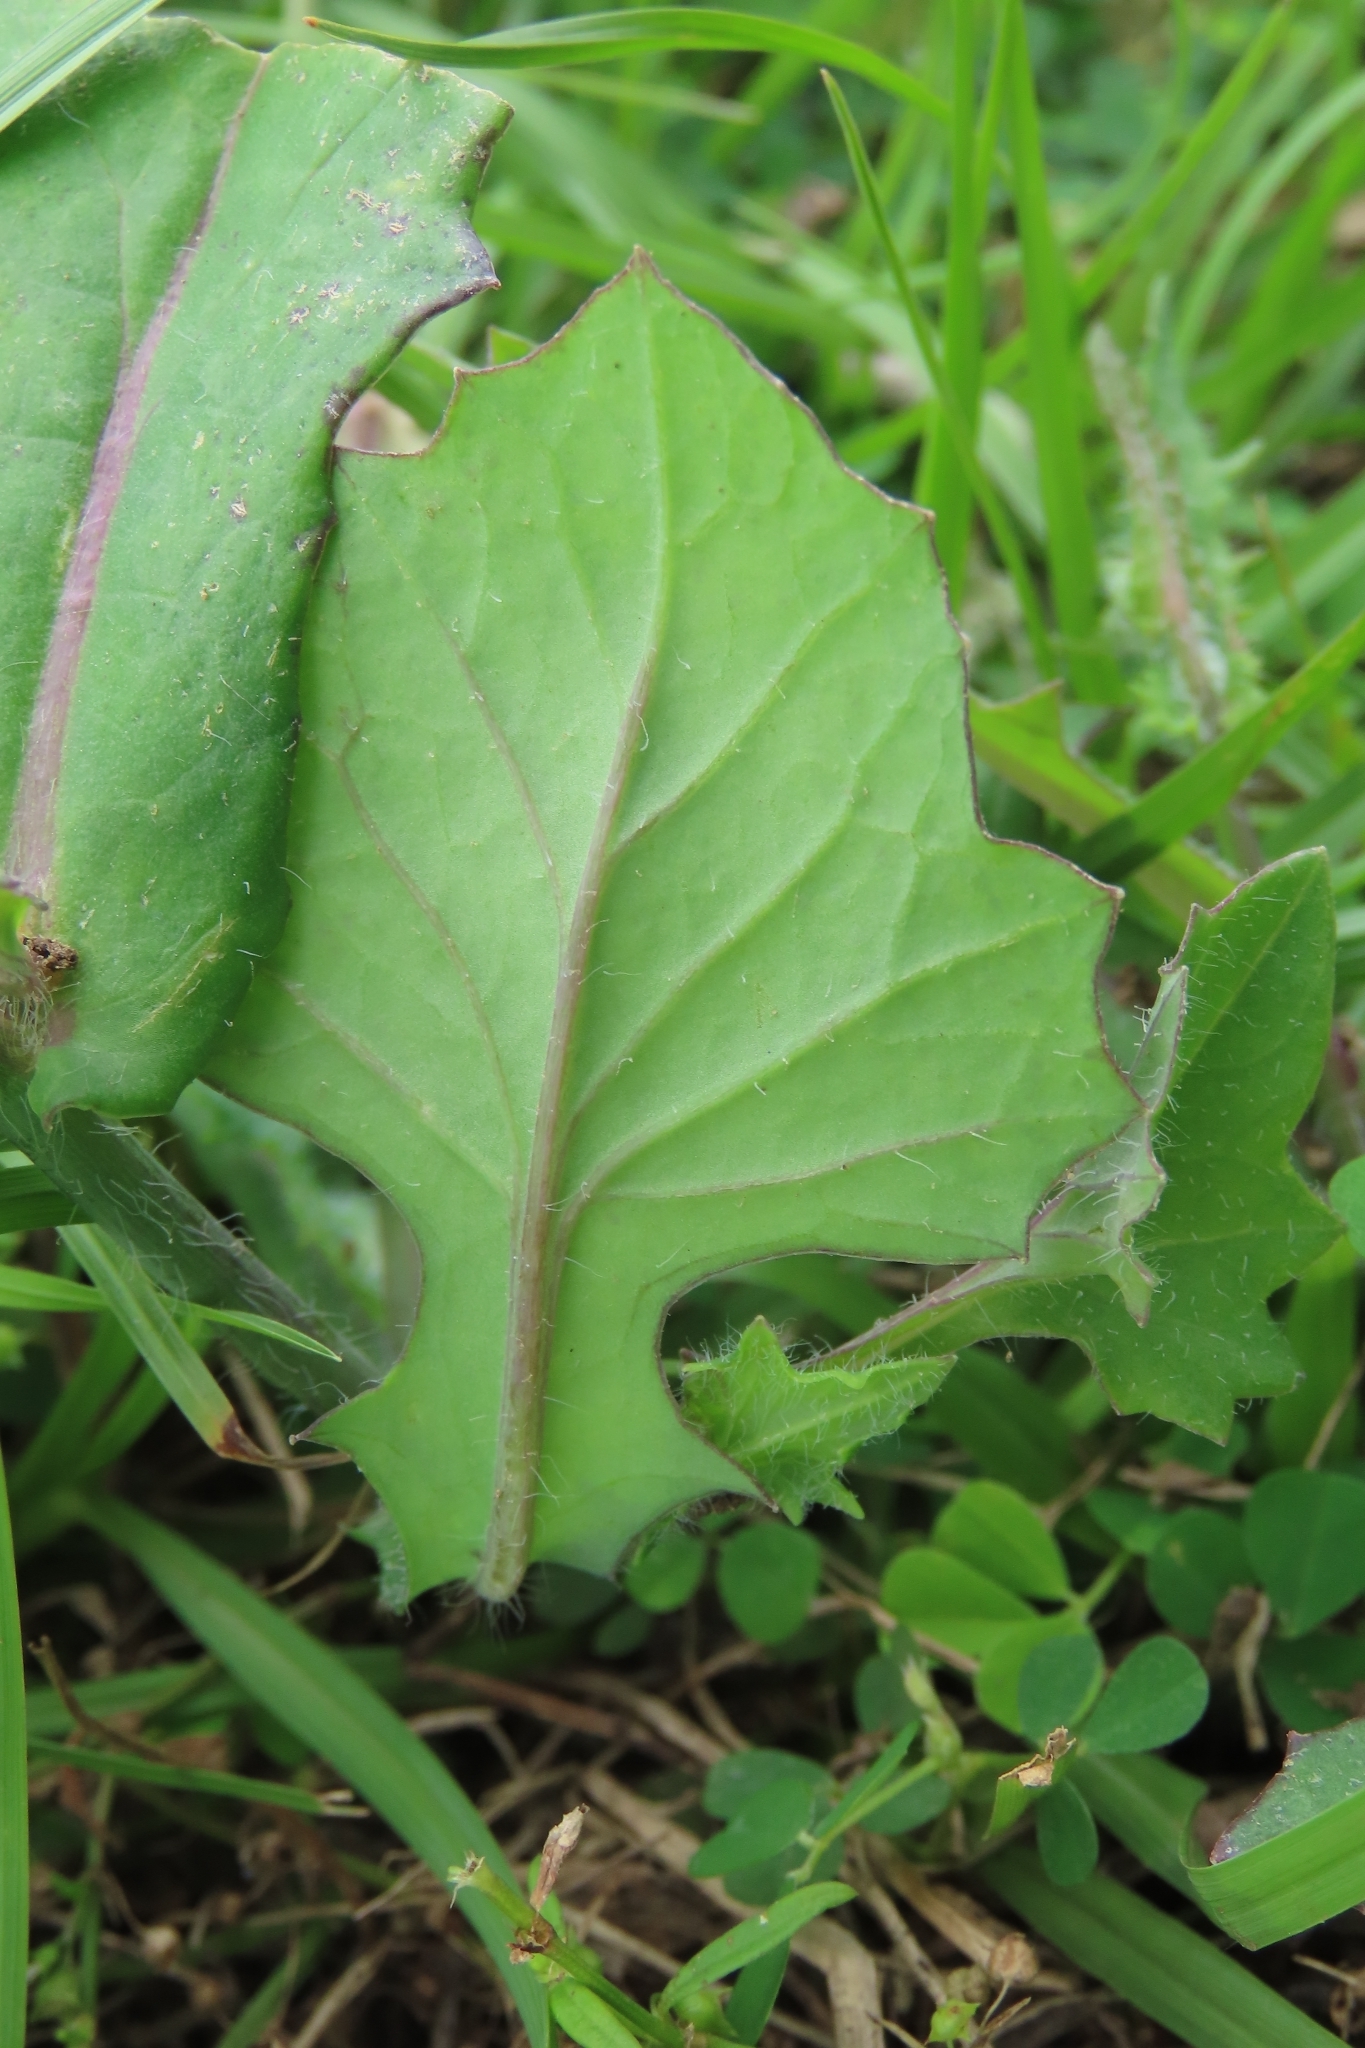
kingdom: Plantae
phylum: Tracheophyta
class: Magnoliopsida
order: Asterales
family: Asteraceae
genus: Emilia
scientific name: Emilia javanica
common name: Tassel-flower
